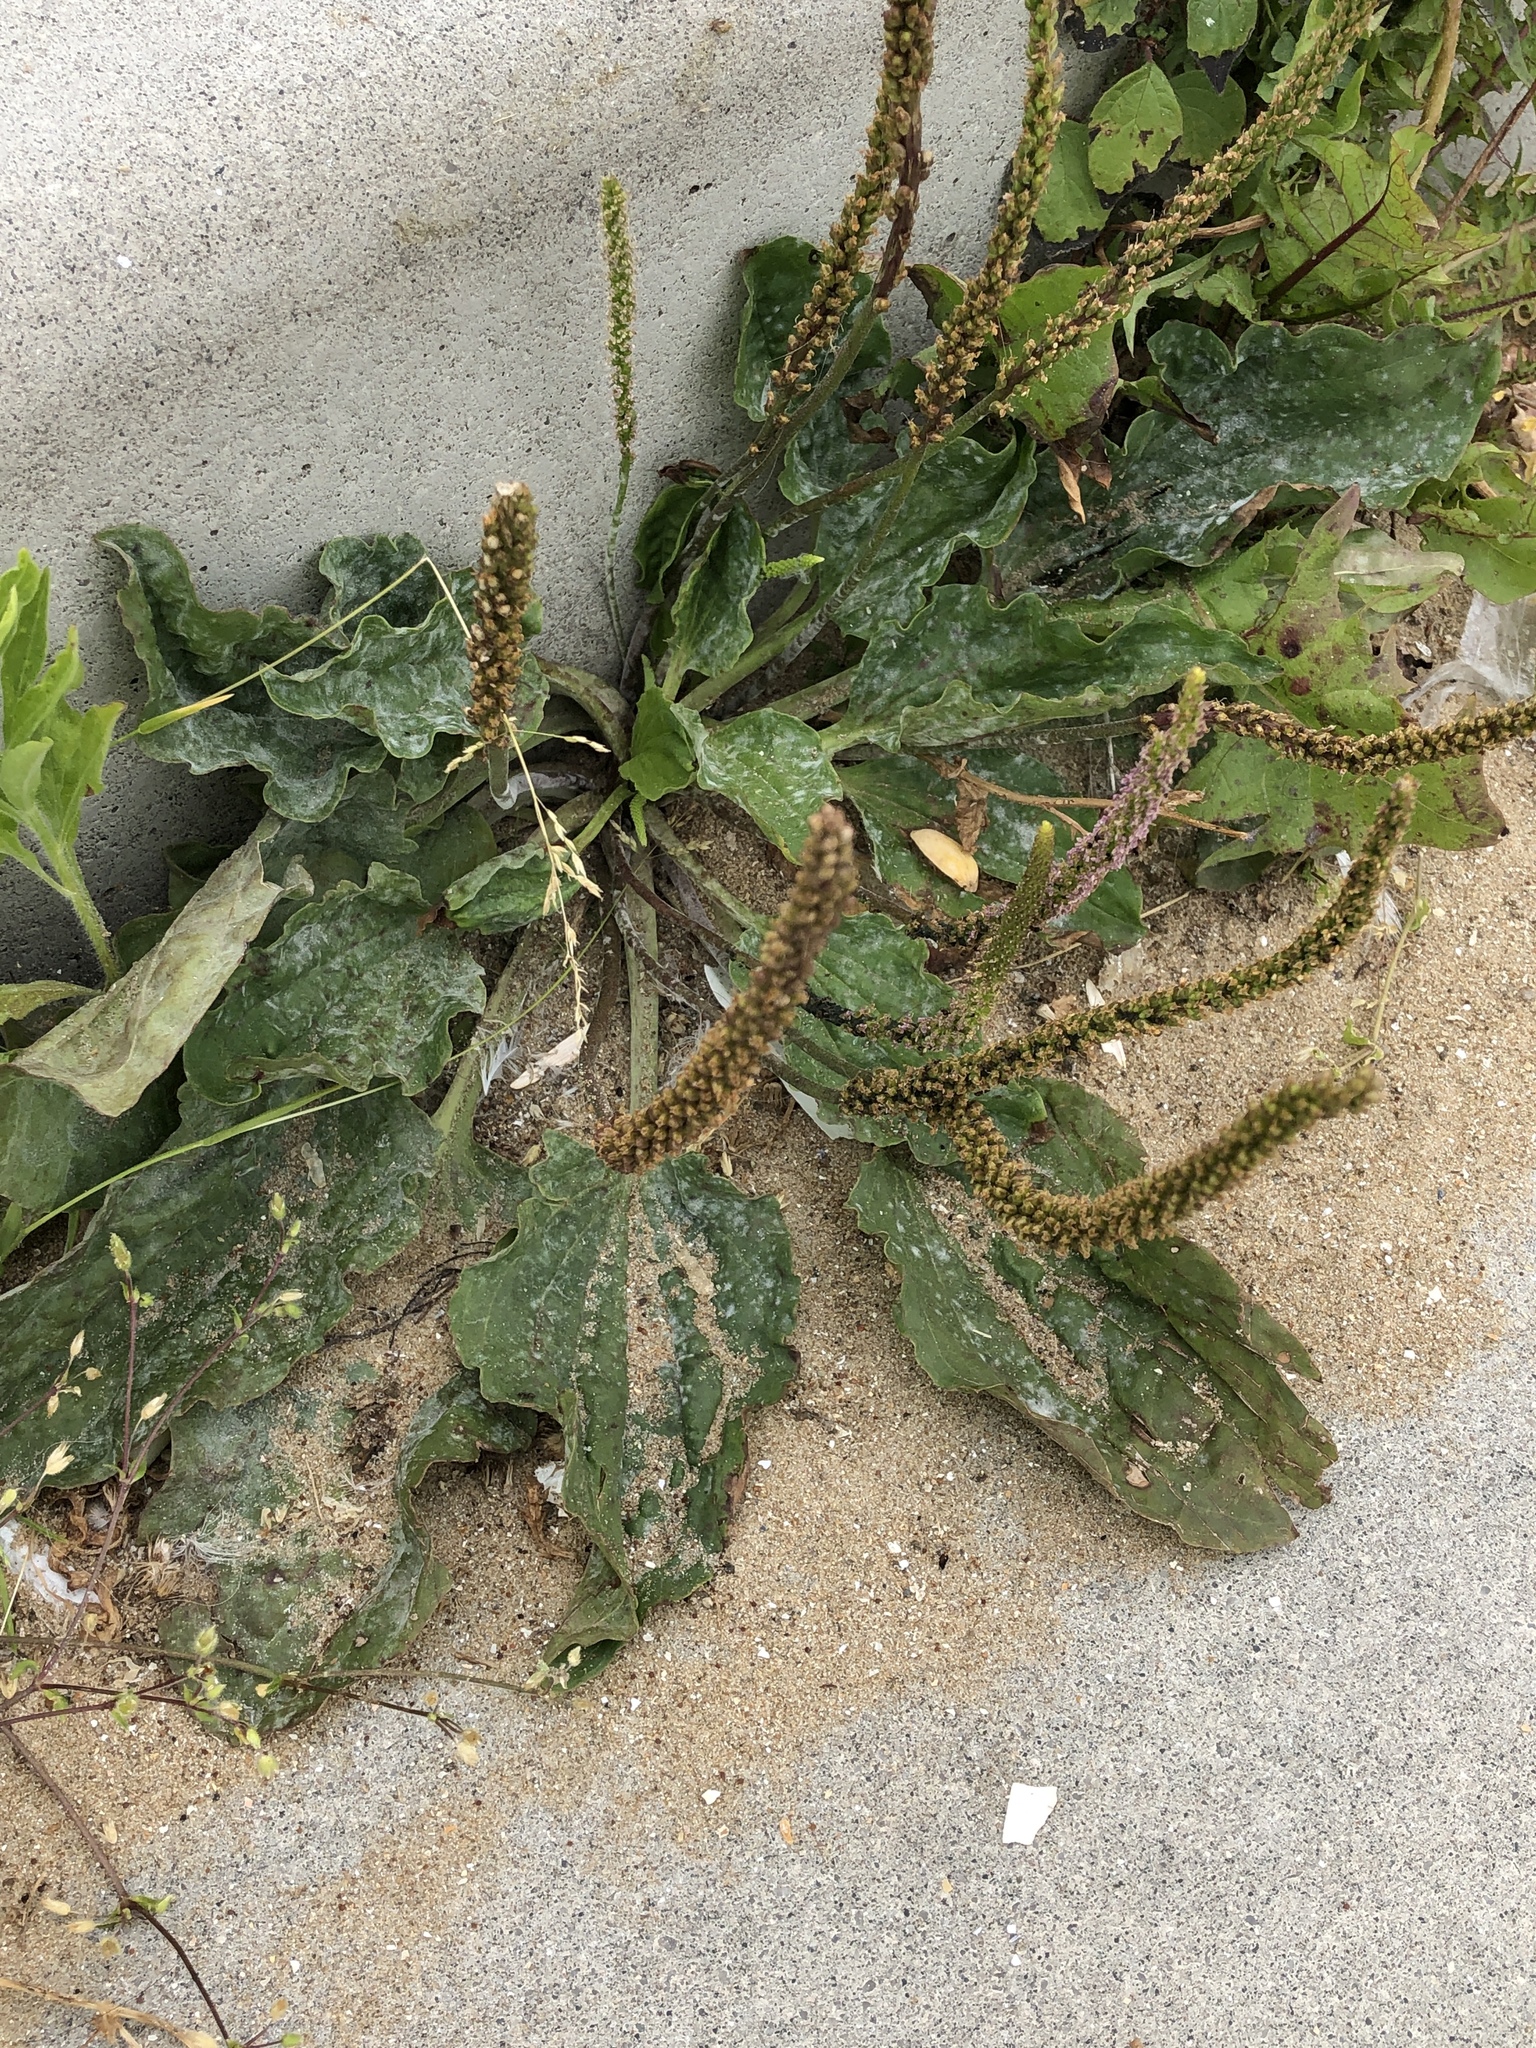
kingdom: Plantae
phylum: Tracheophyta
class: Magnoliopsida
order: Lamiales
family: Plantaginaceae
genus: Plantago
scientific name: Plantago major
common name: Common plantain
